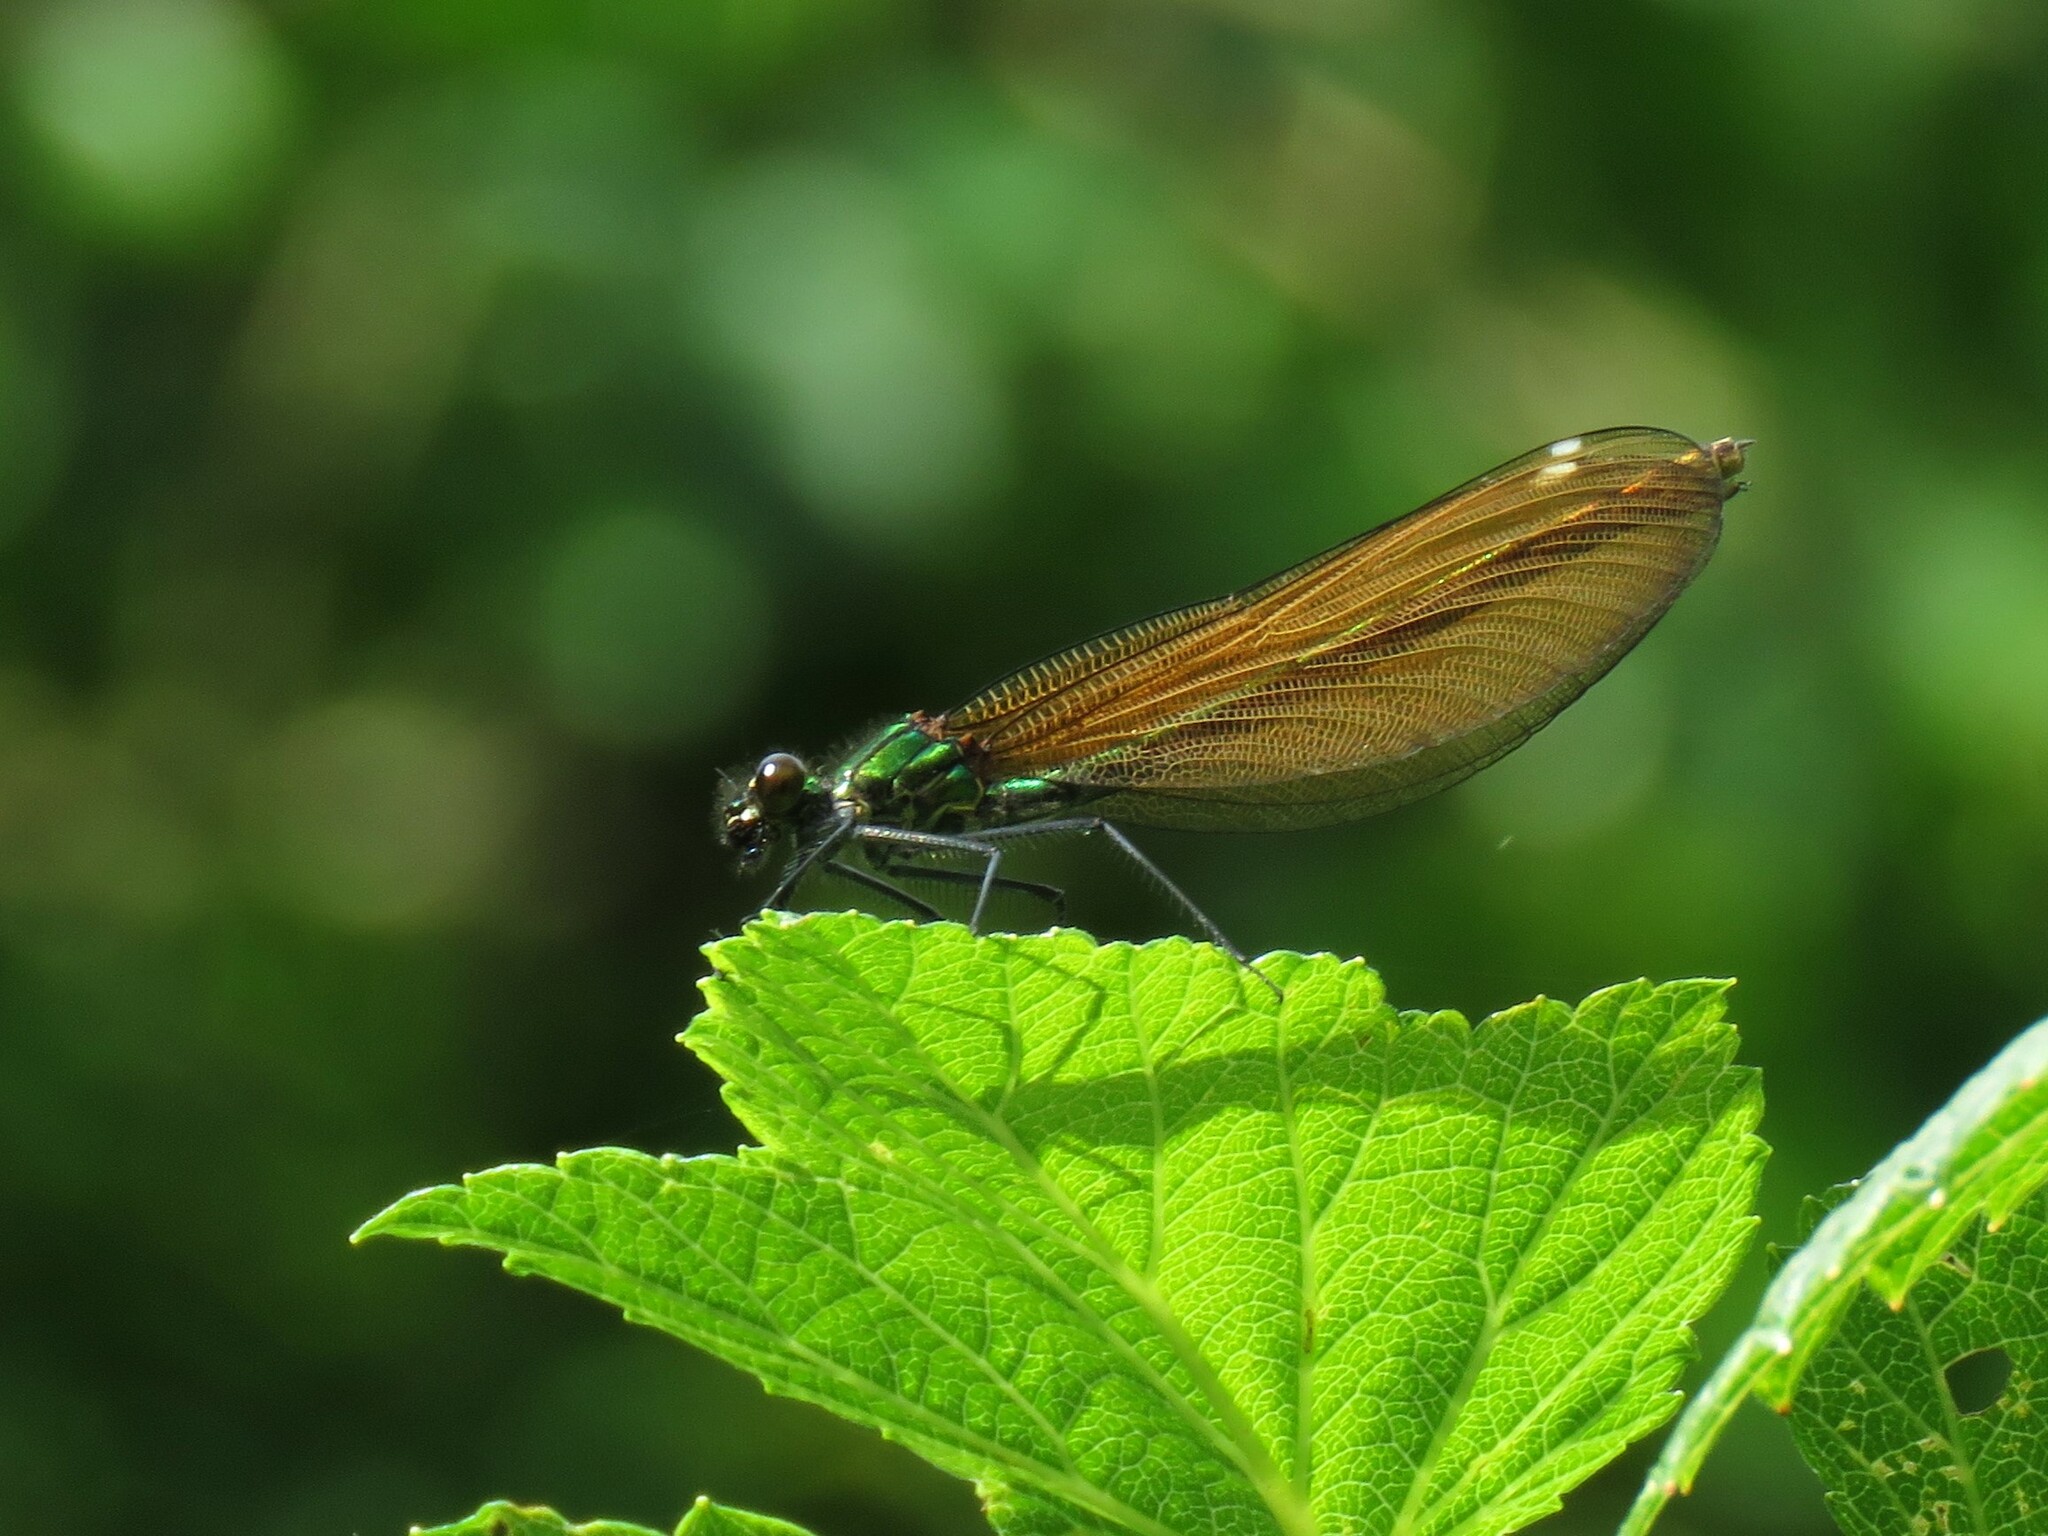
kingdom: Animalia
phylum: Arthropoda
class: Insecta
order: Odonata
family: Calopterygidae
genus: Calopteryx
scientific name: Calopteryx virgo
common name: Beautiful demoiselle
